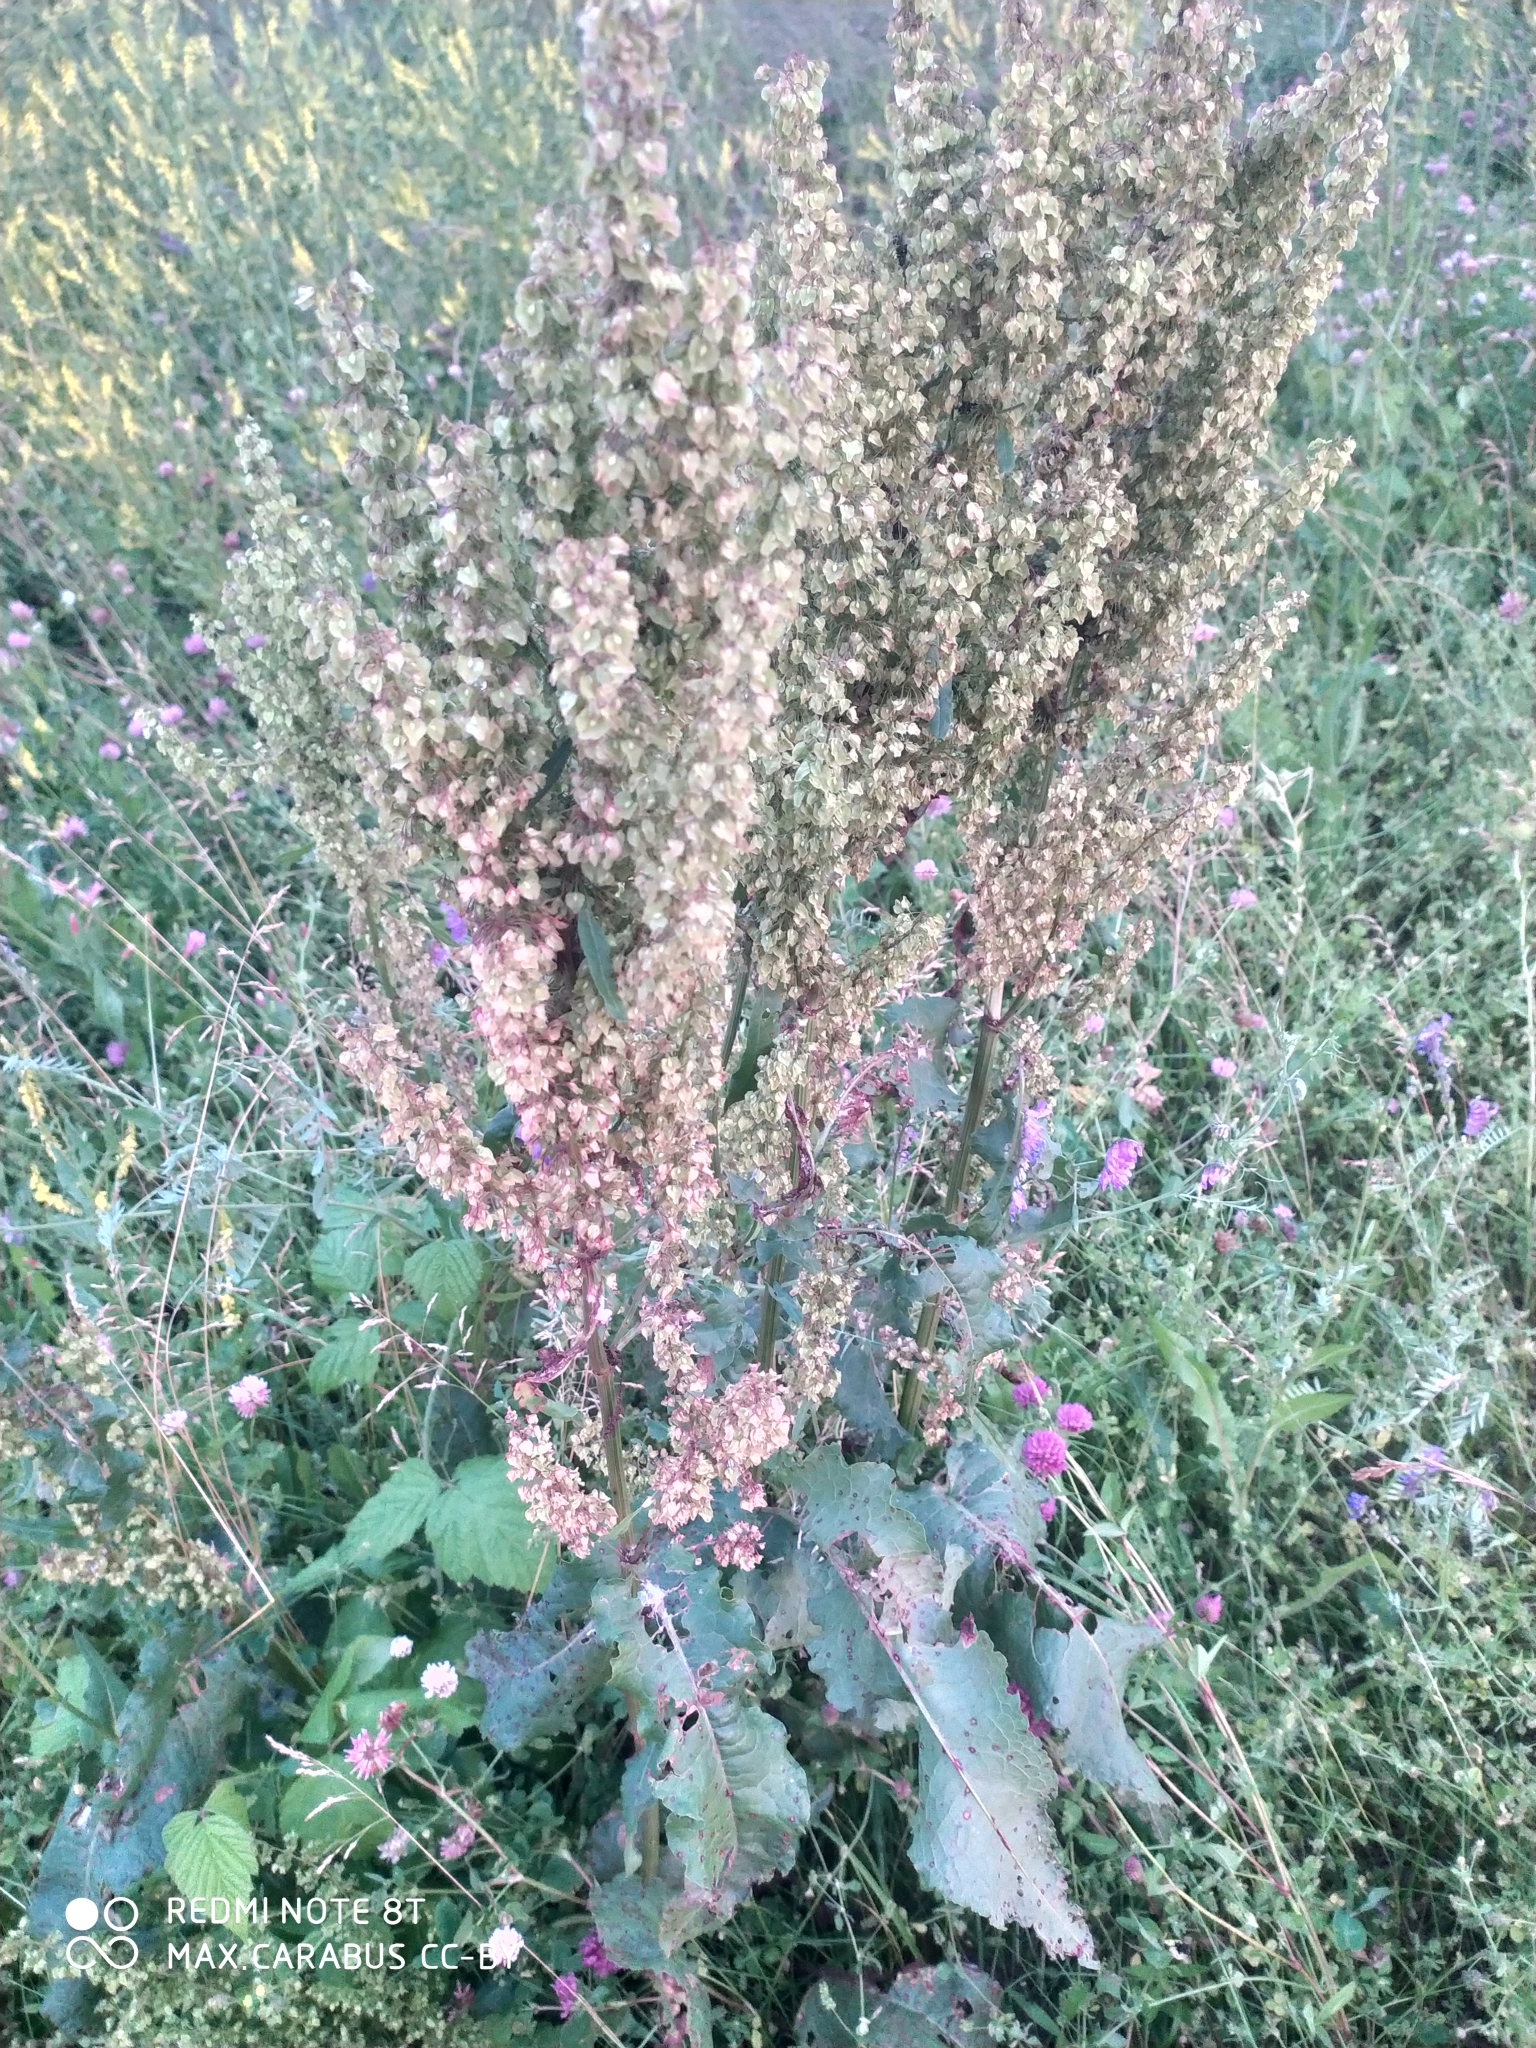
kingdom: Plantae
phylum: Tracheophyta
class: Magnoliopsida
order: Caryophyllales
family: Polygonaceae
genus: Rumex
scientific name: Rumex confertus
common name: Russian dock
